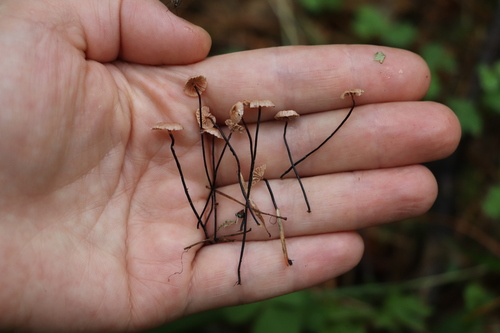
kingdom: Fungi
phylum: Basidiomycota
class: Agaricomycetes
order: Agaricales
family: Omphalotaceae
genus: Gymnopus
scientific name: Gymnopus androsaceus
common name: Horse-hair fungus
